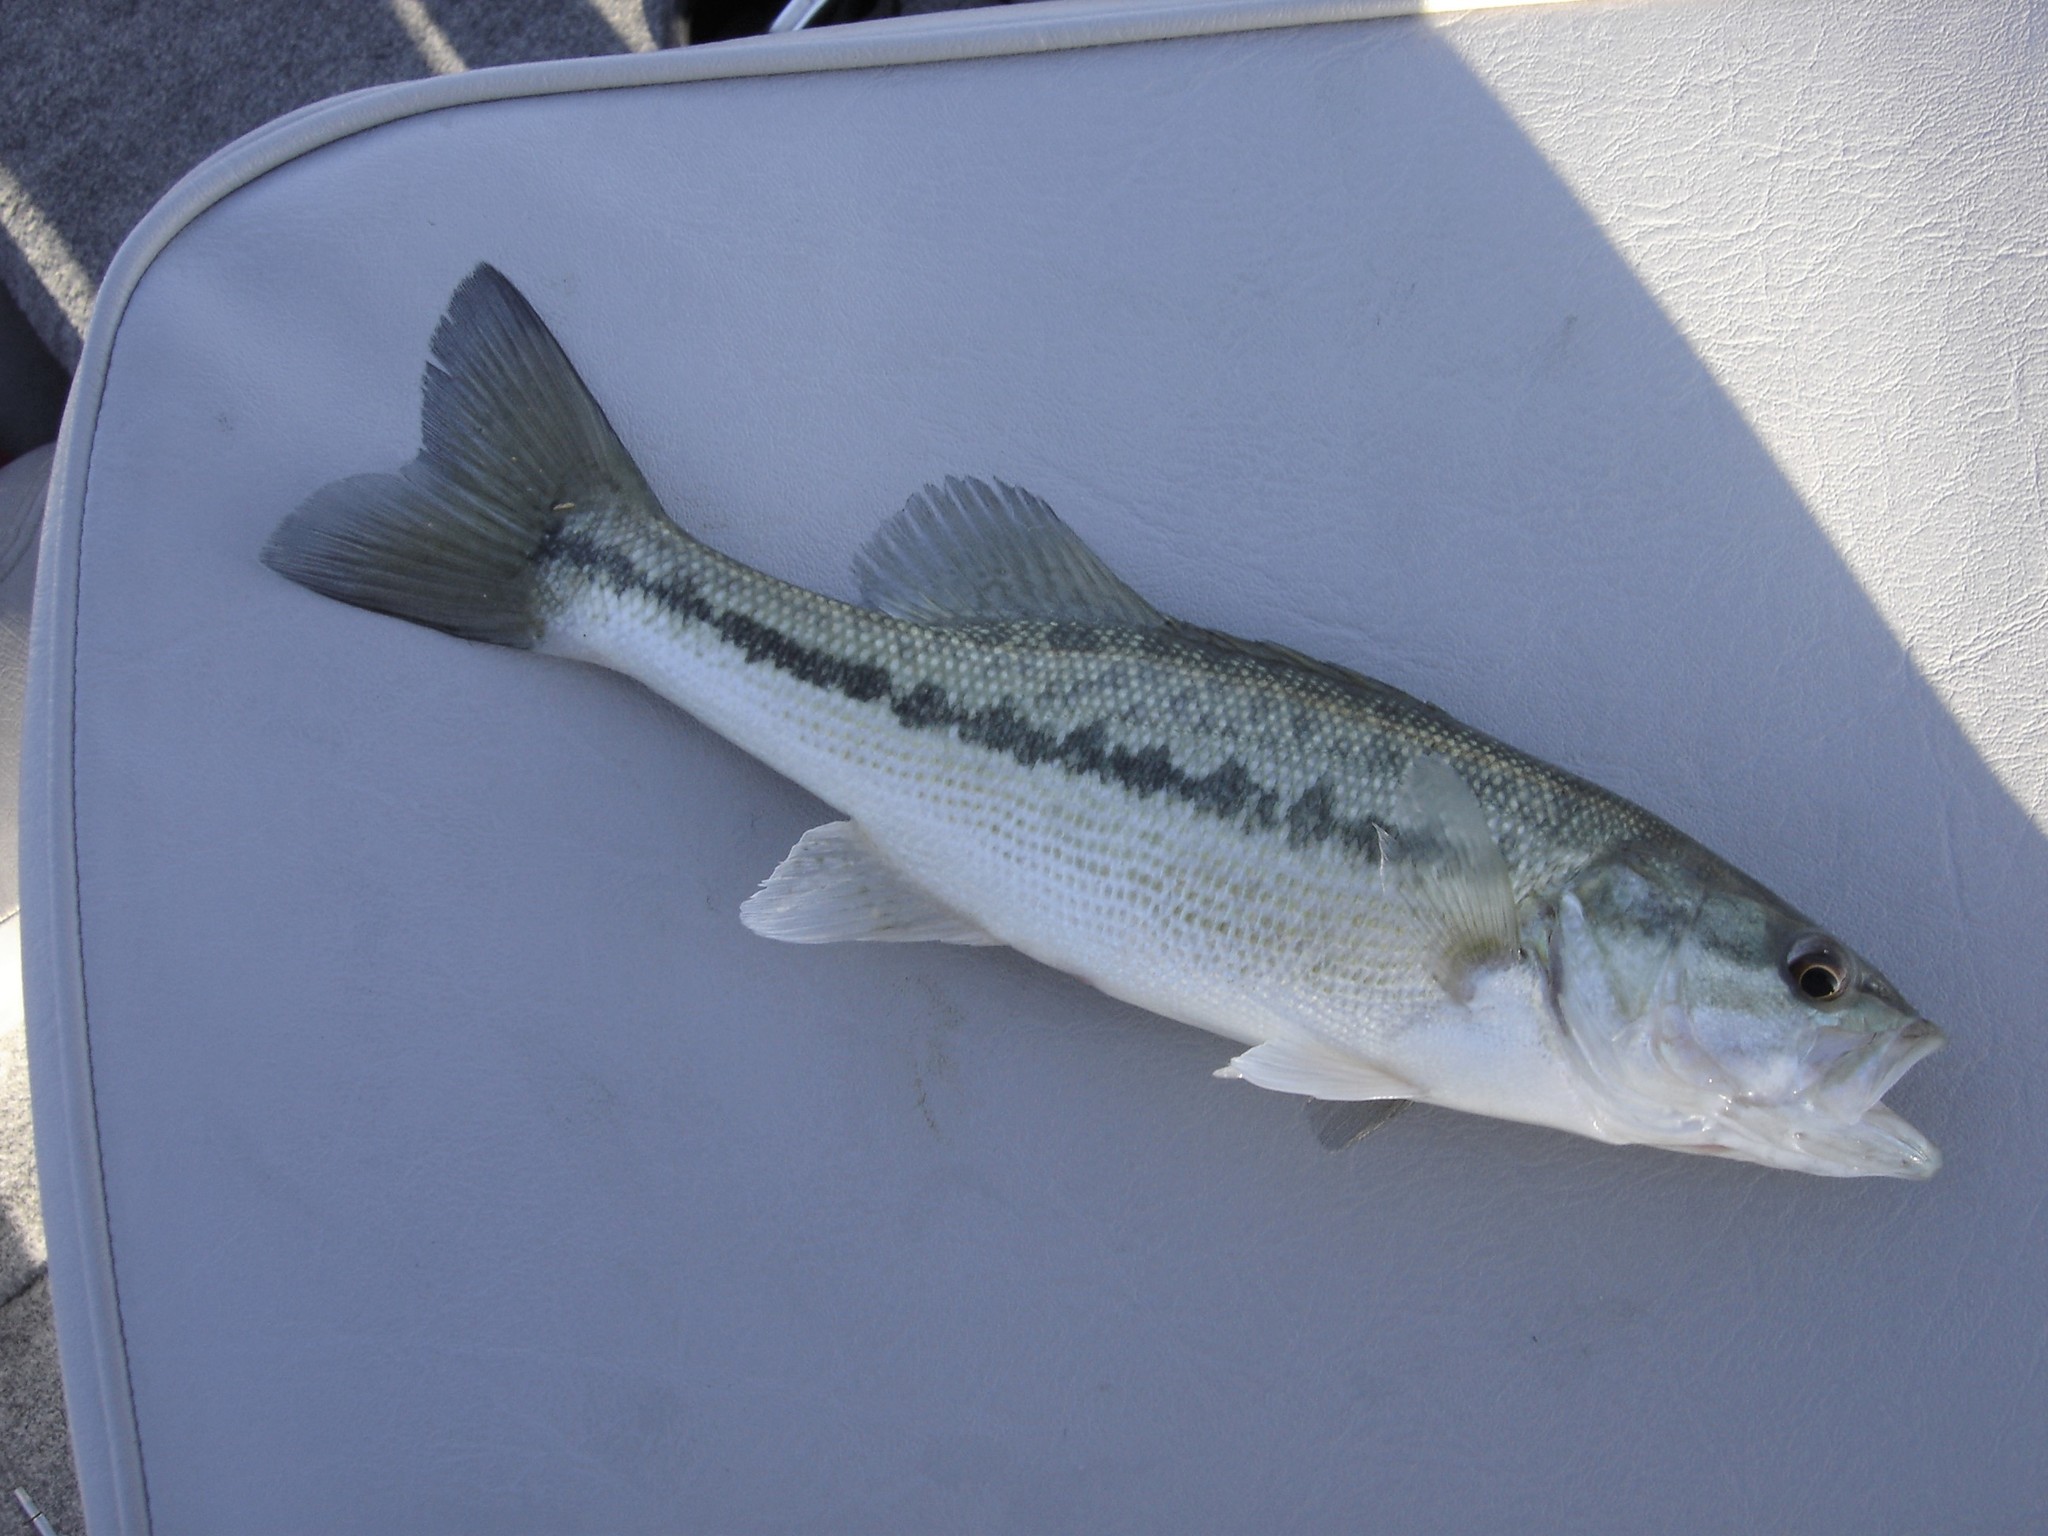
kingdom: Animalia
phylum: Chordata
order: Perciformes
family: Centrarchidae
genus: Micropterus
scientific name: Micropterus henshalli
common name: Alabama bass
